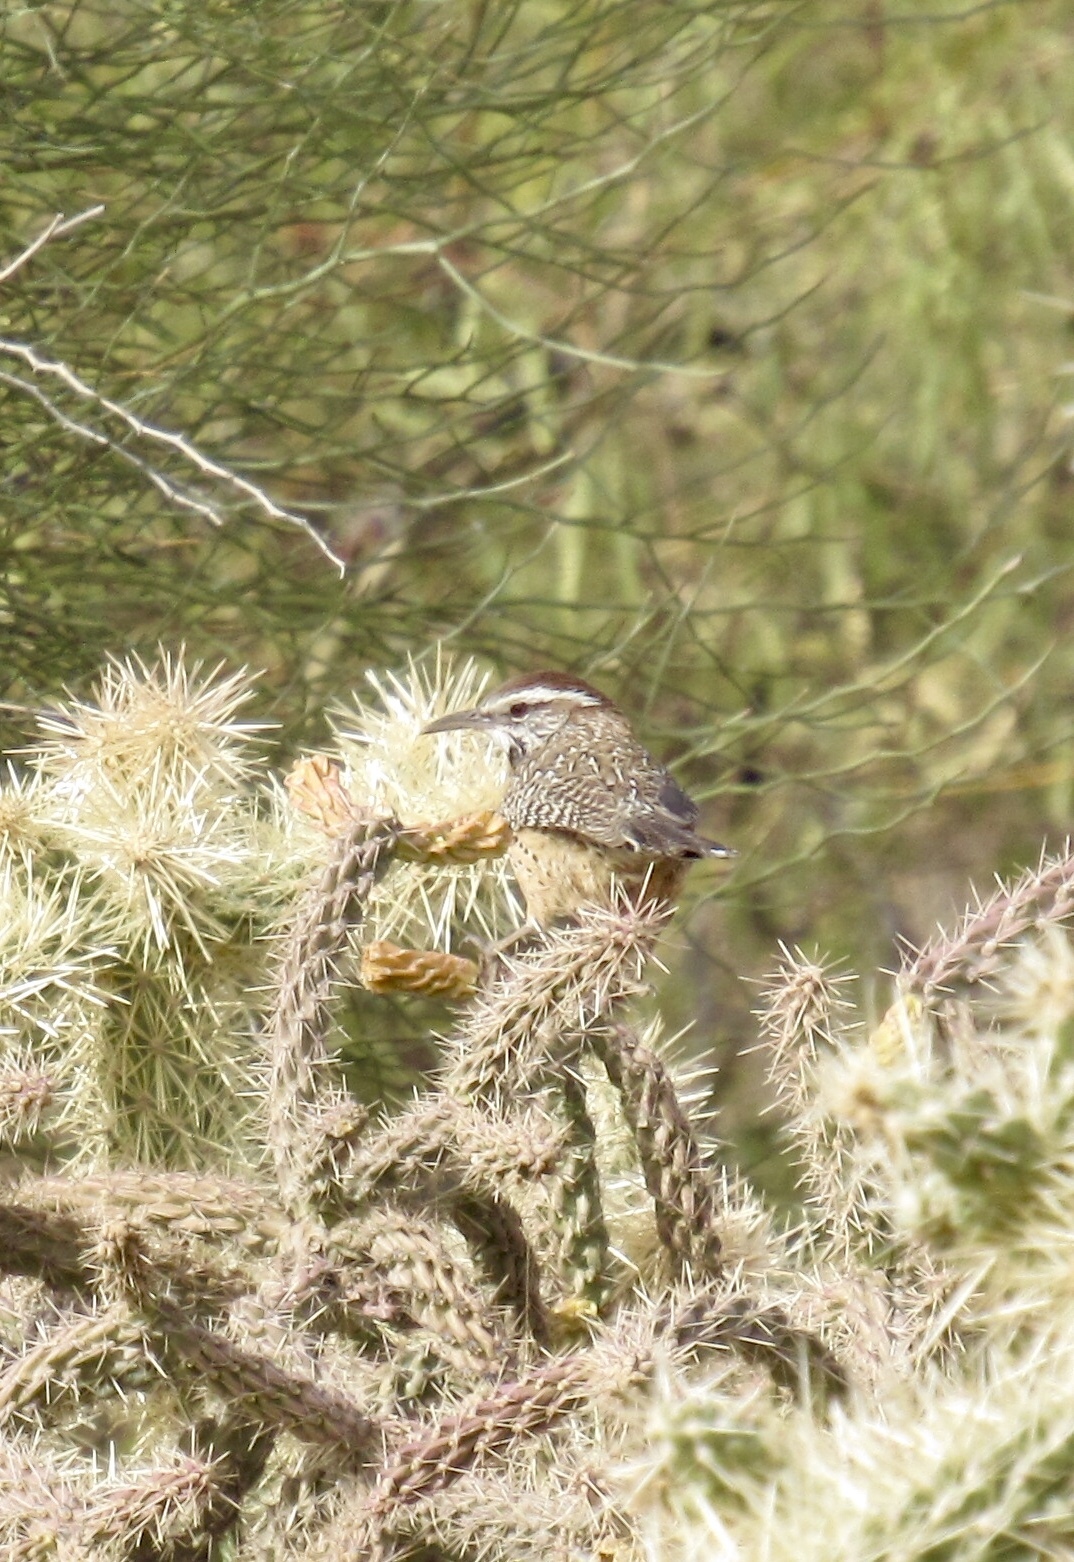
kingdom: Animalia
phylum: Chordata
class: Aves
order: Passeriformes
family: Troglodytidae
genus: Campylorhynchus
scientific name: Campylorhynchus brunneicapillus
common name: Cactus wren
